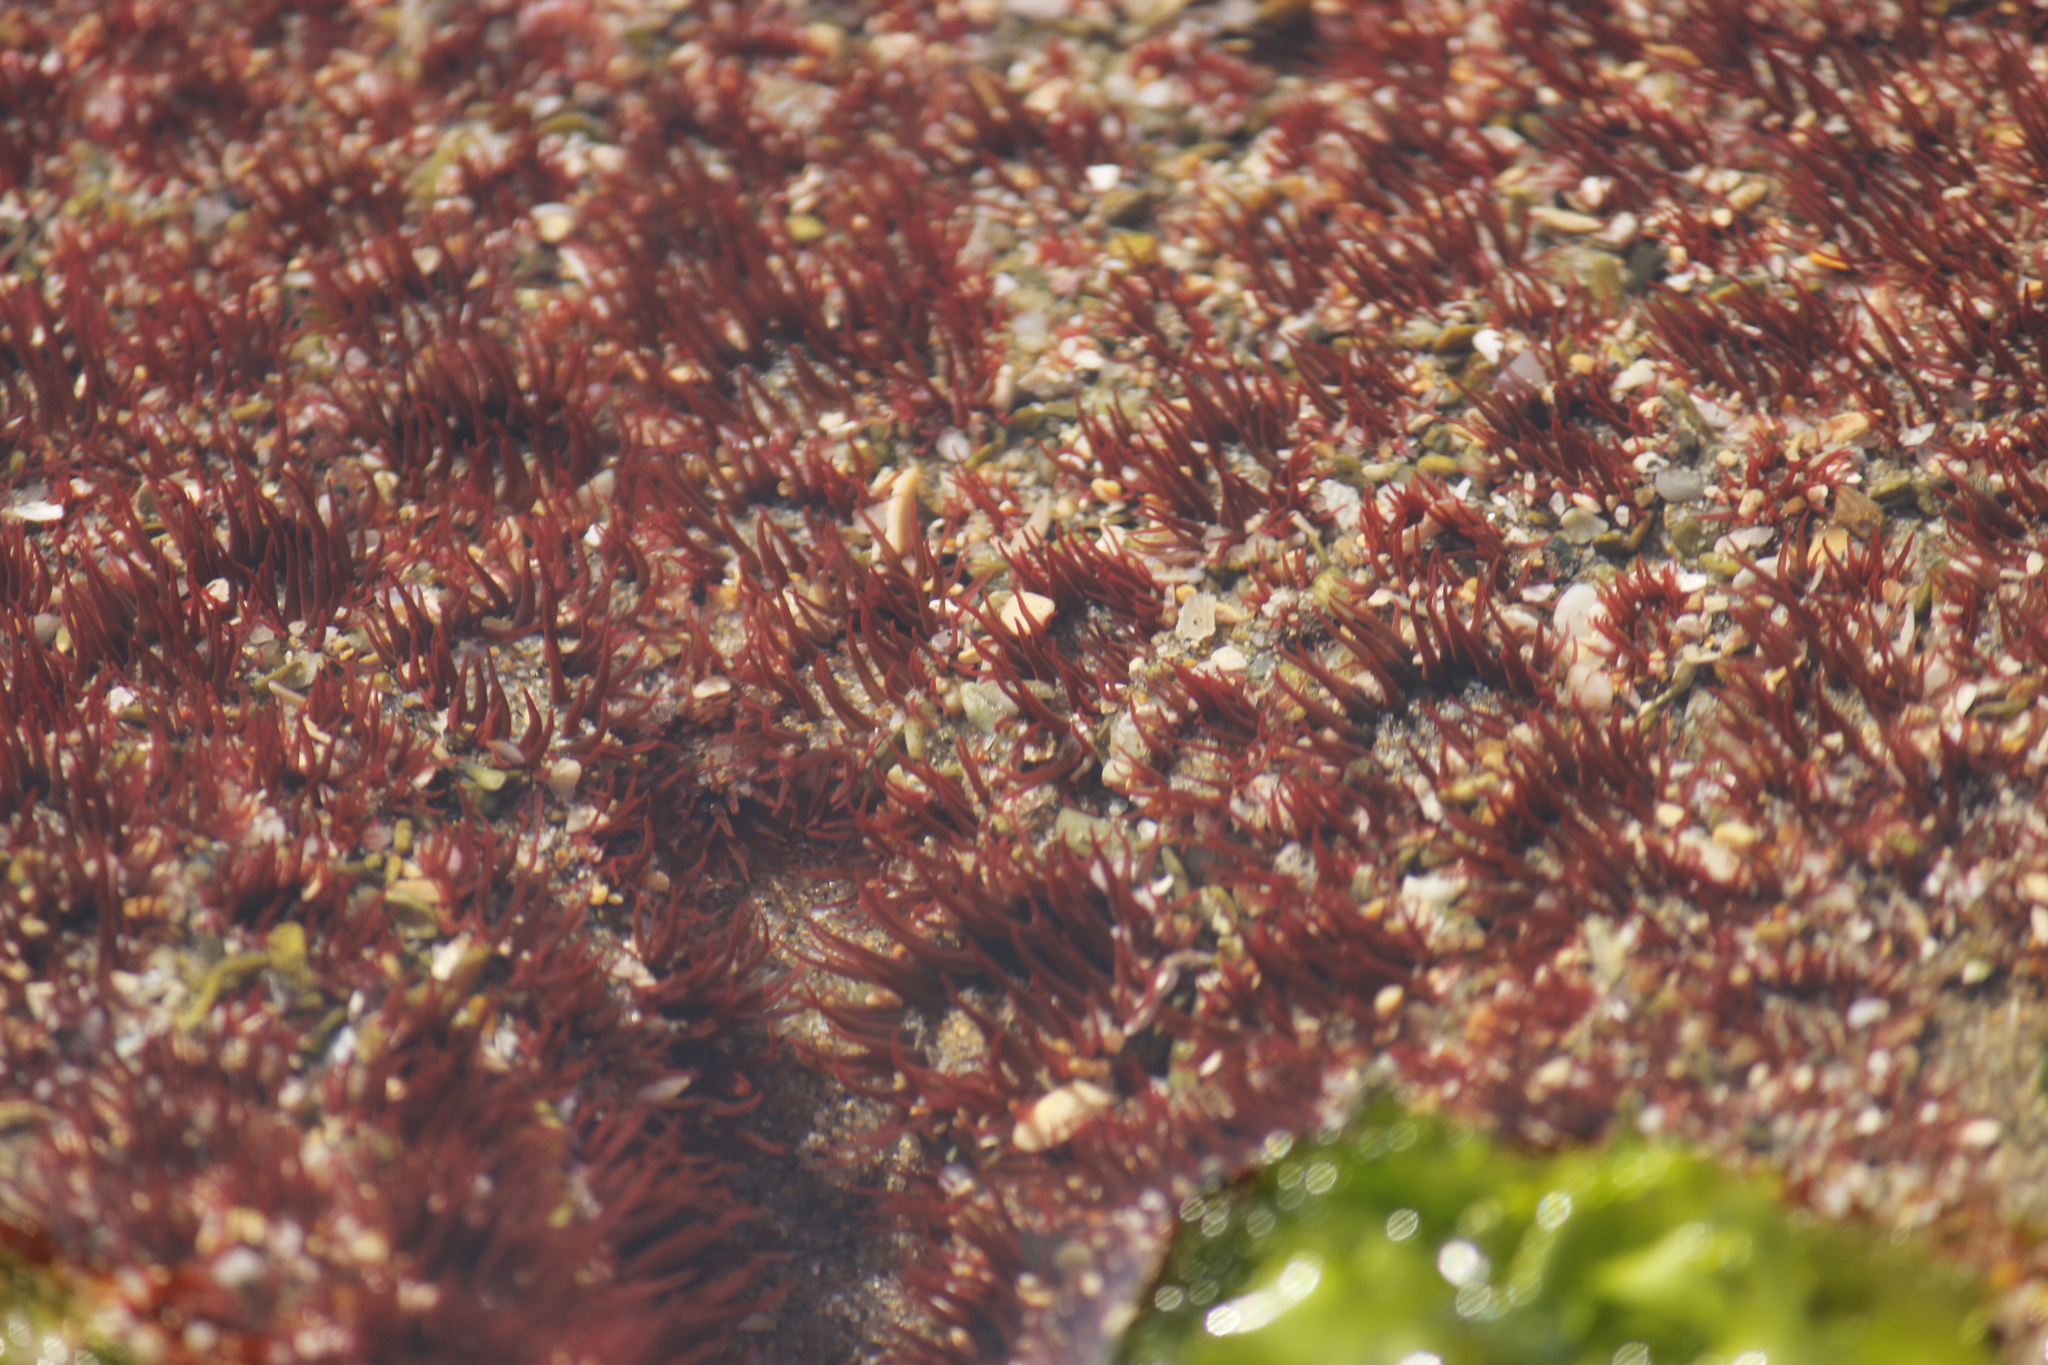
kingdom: Animalia
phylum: Cnidaria
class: Anthozoa
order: Actiniaria
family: Actiniidae
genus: Anthopleura
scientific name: Anthopleura mariscali
